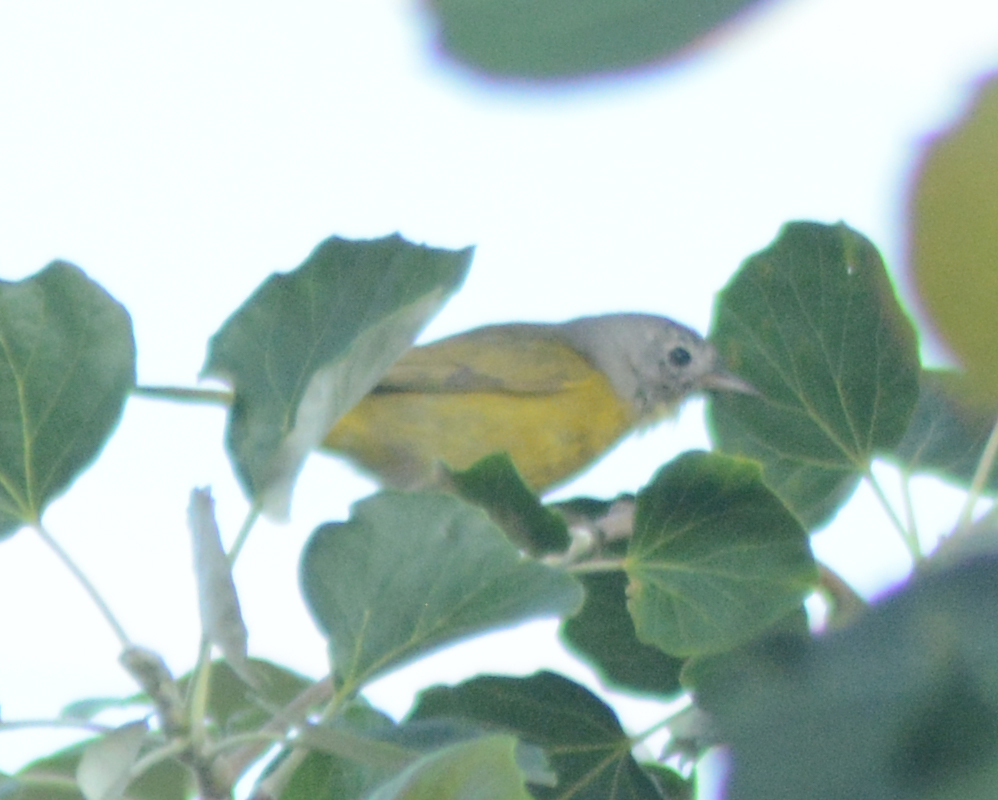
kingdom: Animalia
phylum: Chordata
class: Aves
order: Passeriformes
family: Parulidae
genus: Leiothlypis
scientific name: Leiothlypis ruficapilla
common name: Nashville warbler
